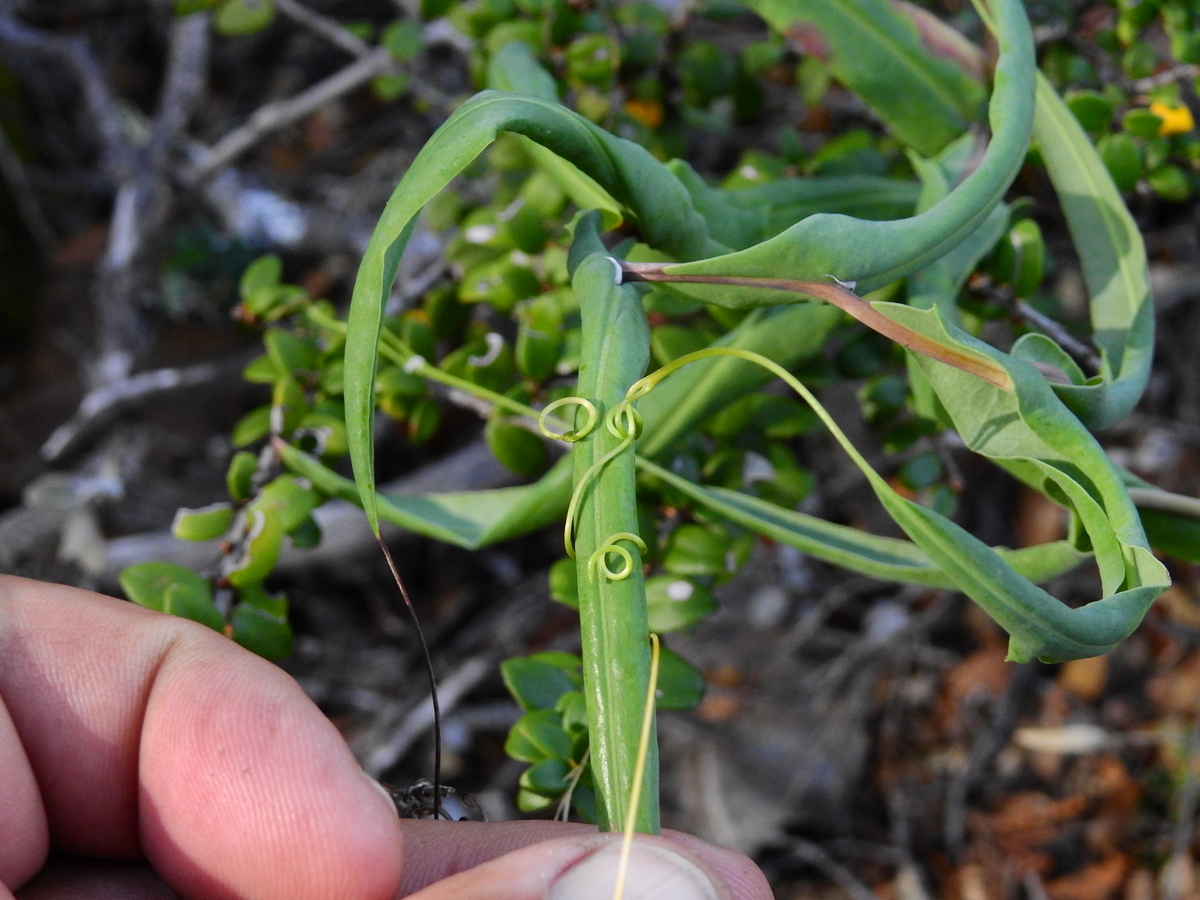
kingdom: Plantae
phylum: Tracheophyta
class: Magnoliopsida
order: Asterales
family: Asteraceae
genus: Mutisia
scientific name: Mutisia decurrens
